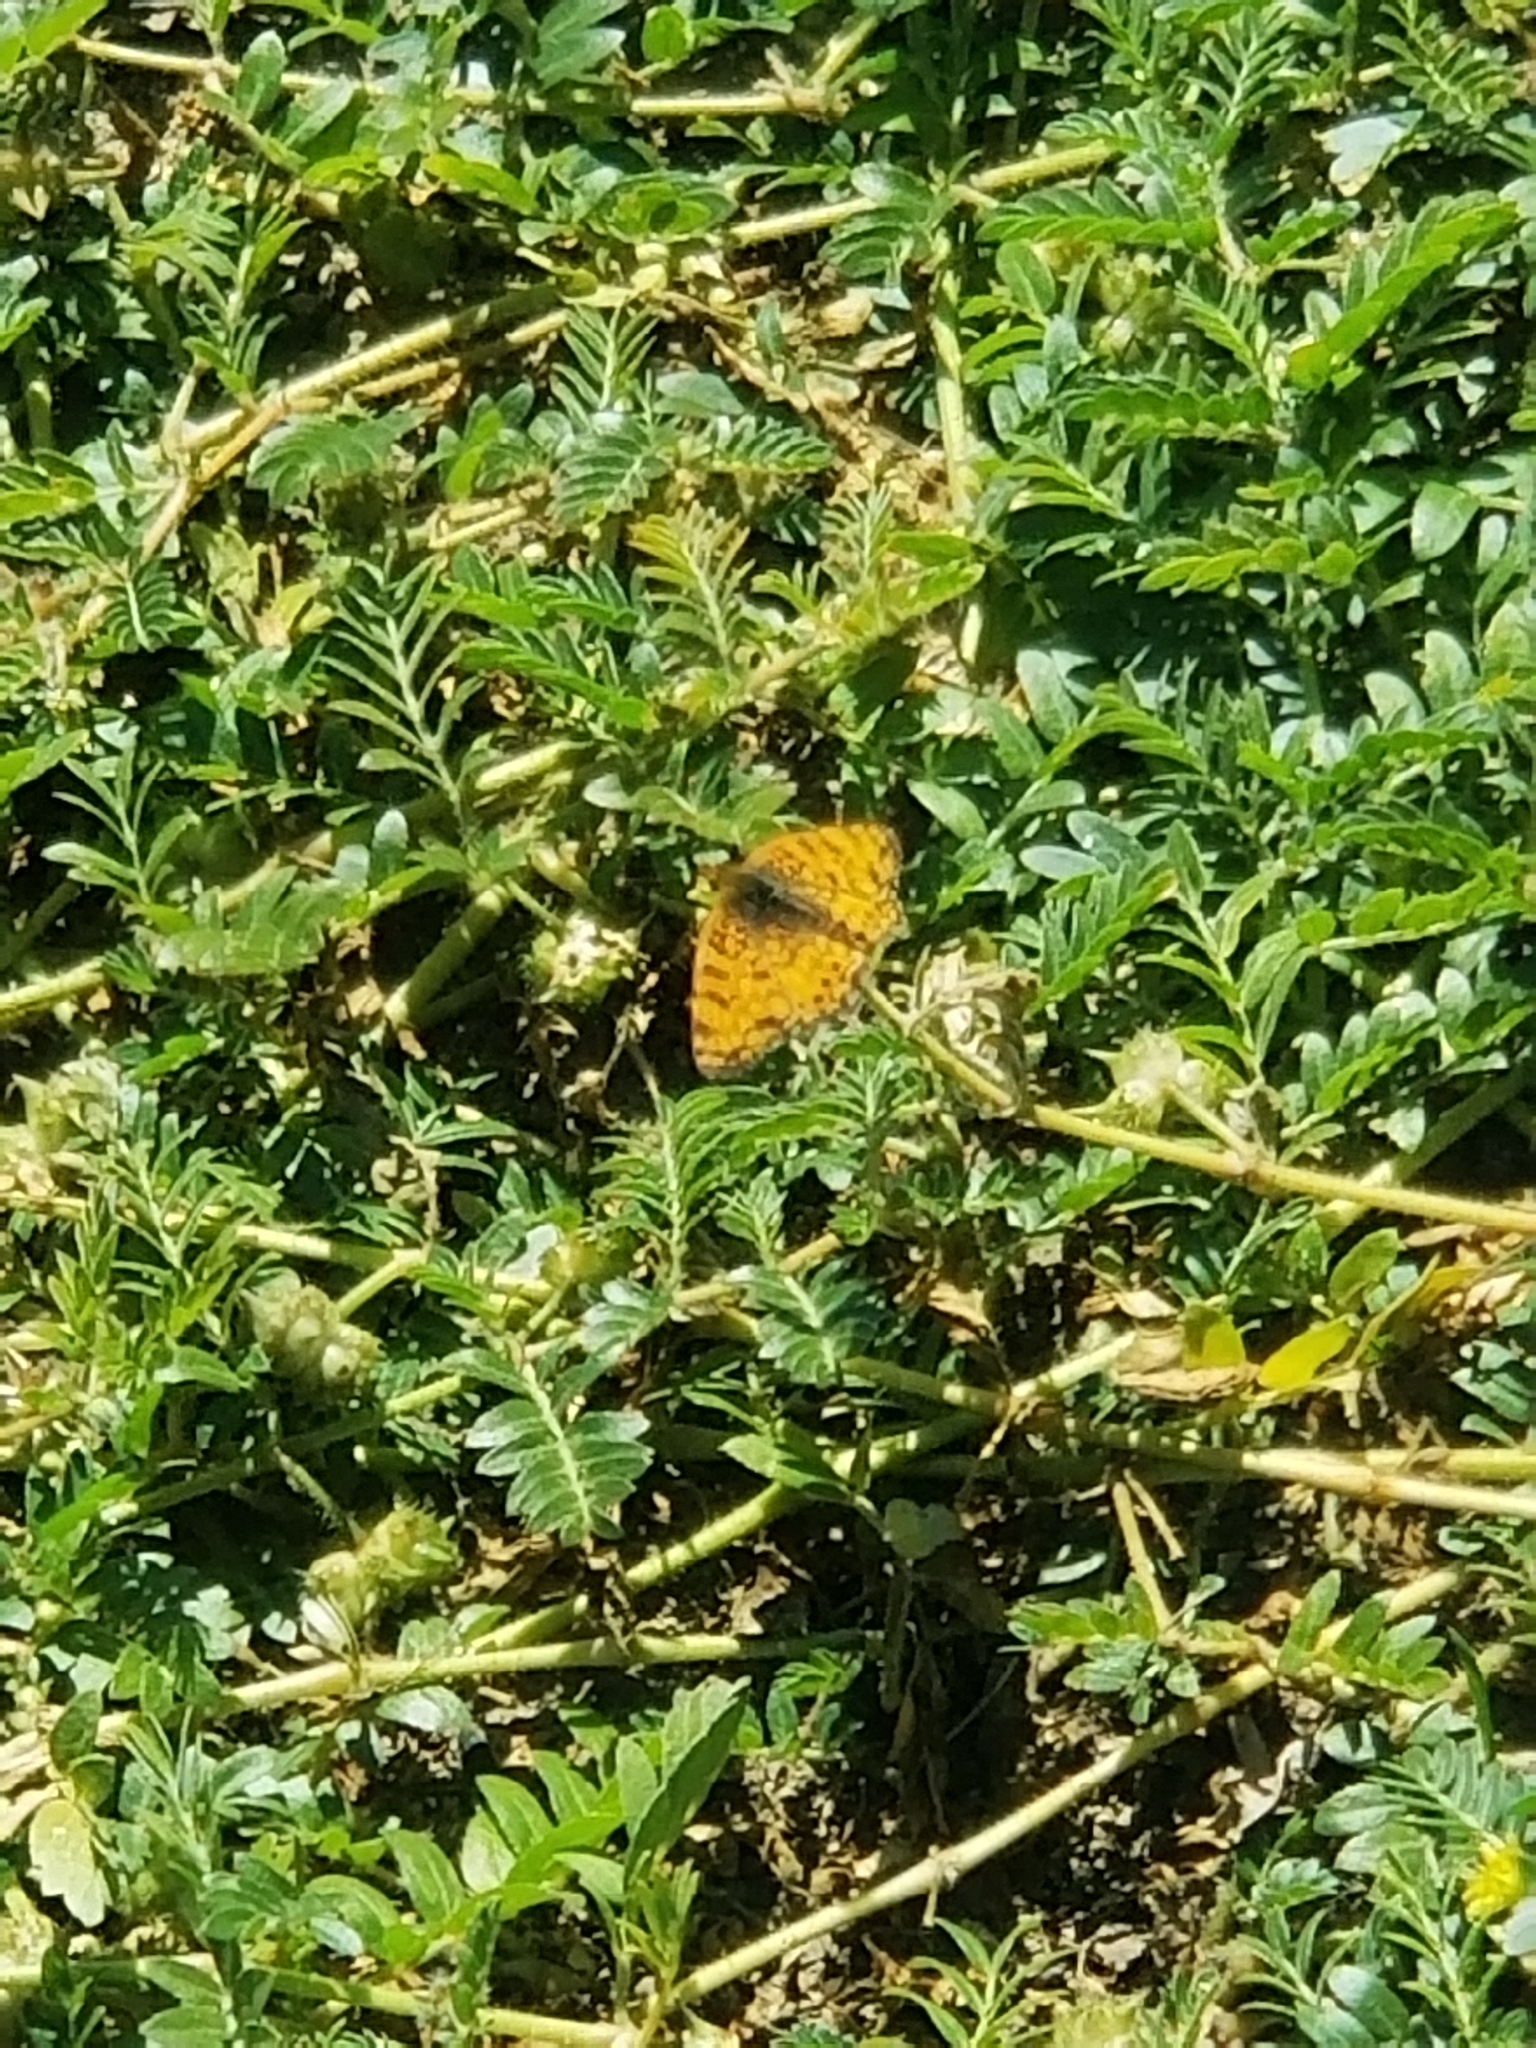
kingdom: Animalia
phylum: Arthropoda
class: Insecta
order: Lepidoptera
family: Nymphalidae
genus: Eresia
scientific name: Eresia aveyrona
